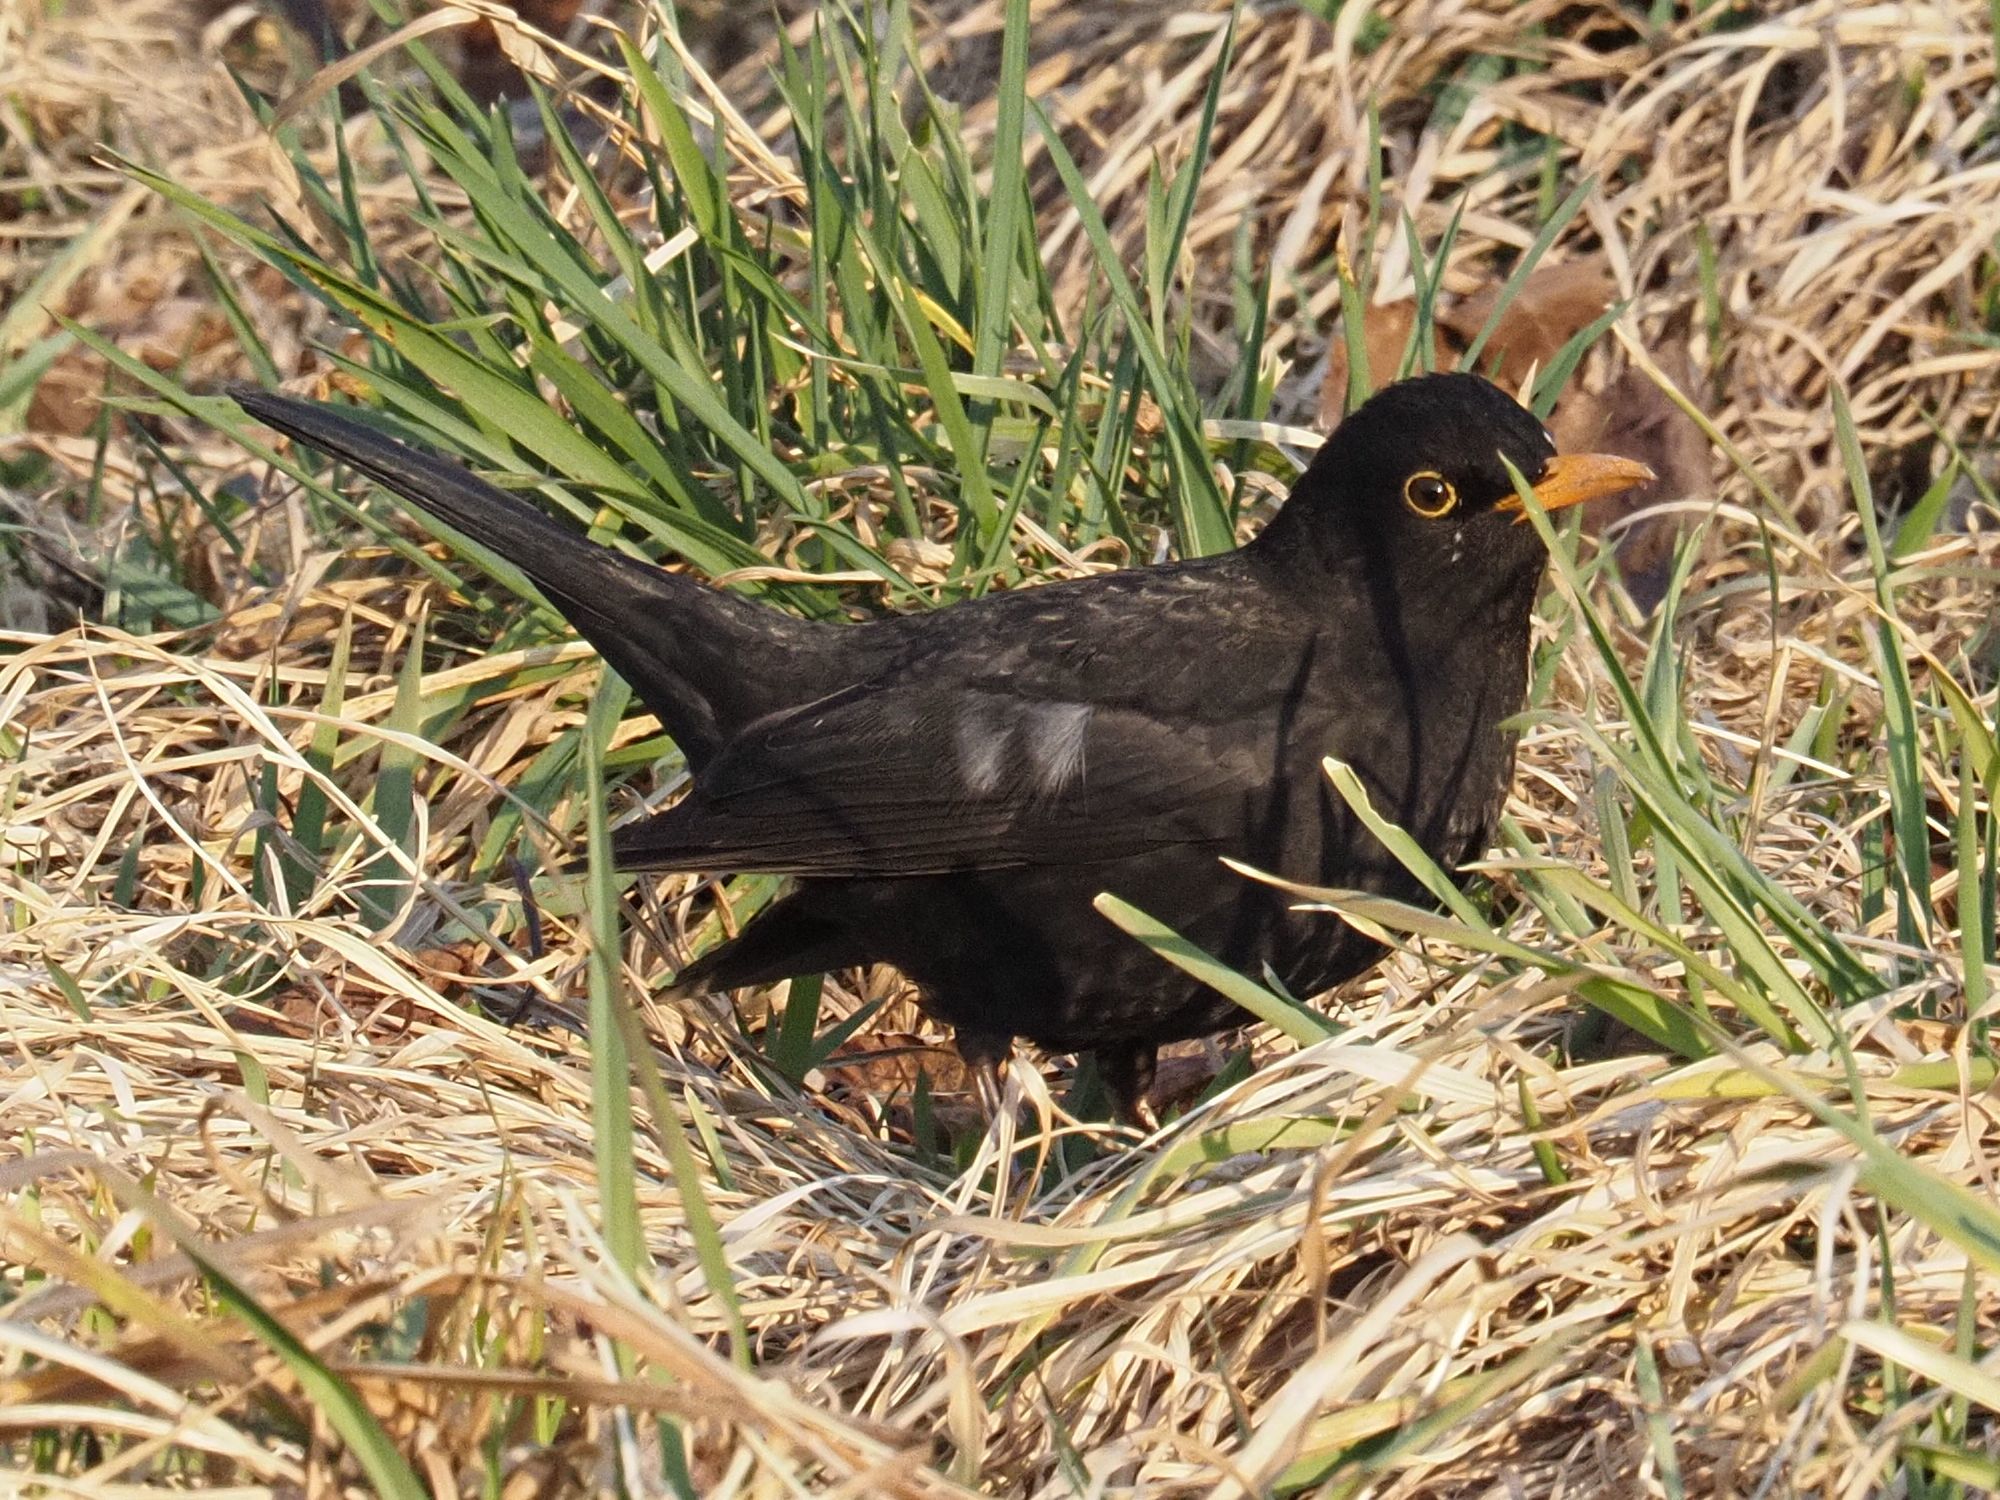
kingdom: Animalia
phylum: Chordata
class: Aves
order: Passeriformes
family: Turdidae
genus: Turdus
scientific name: Turdus merula
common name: Common blackbird
